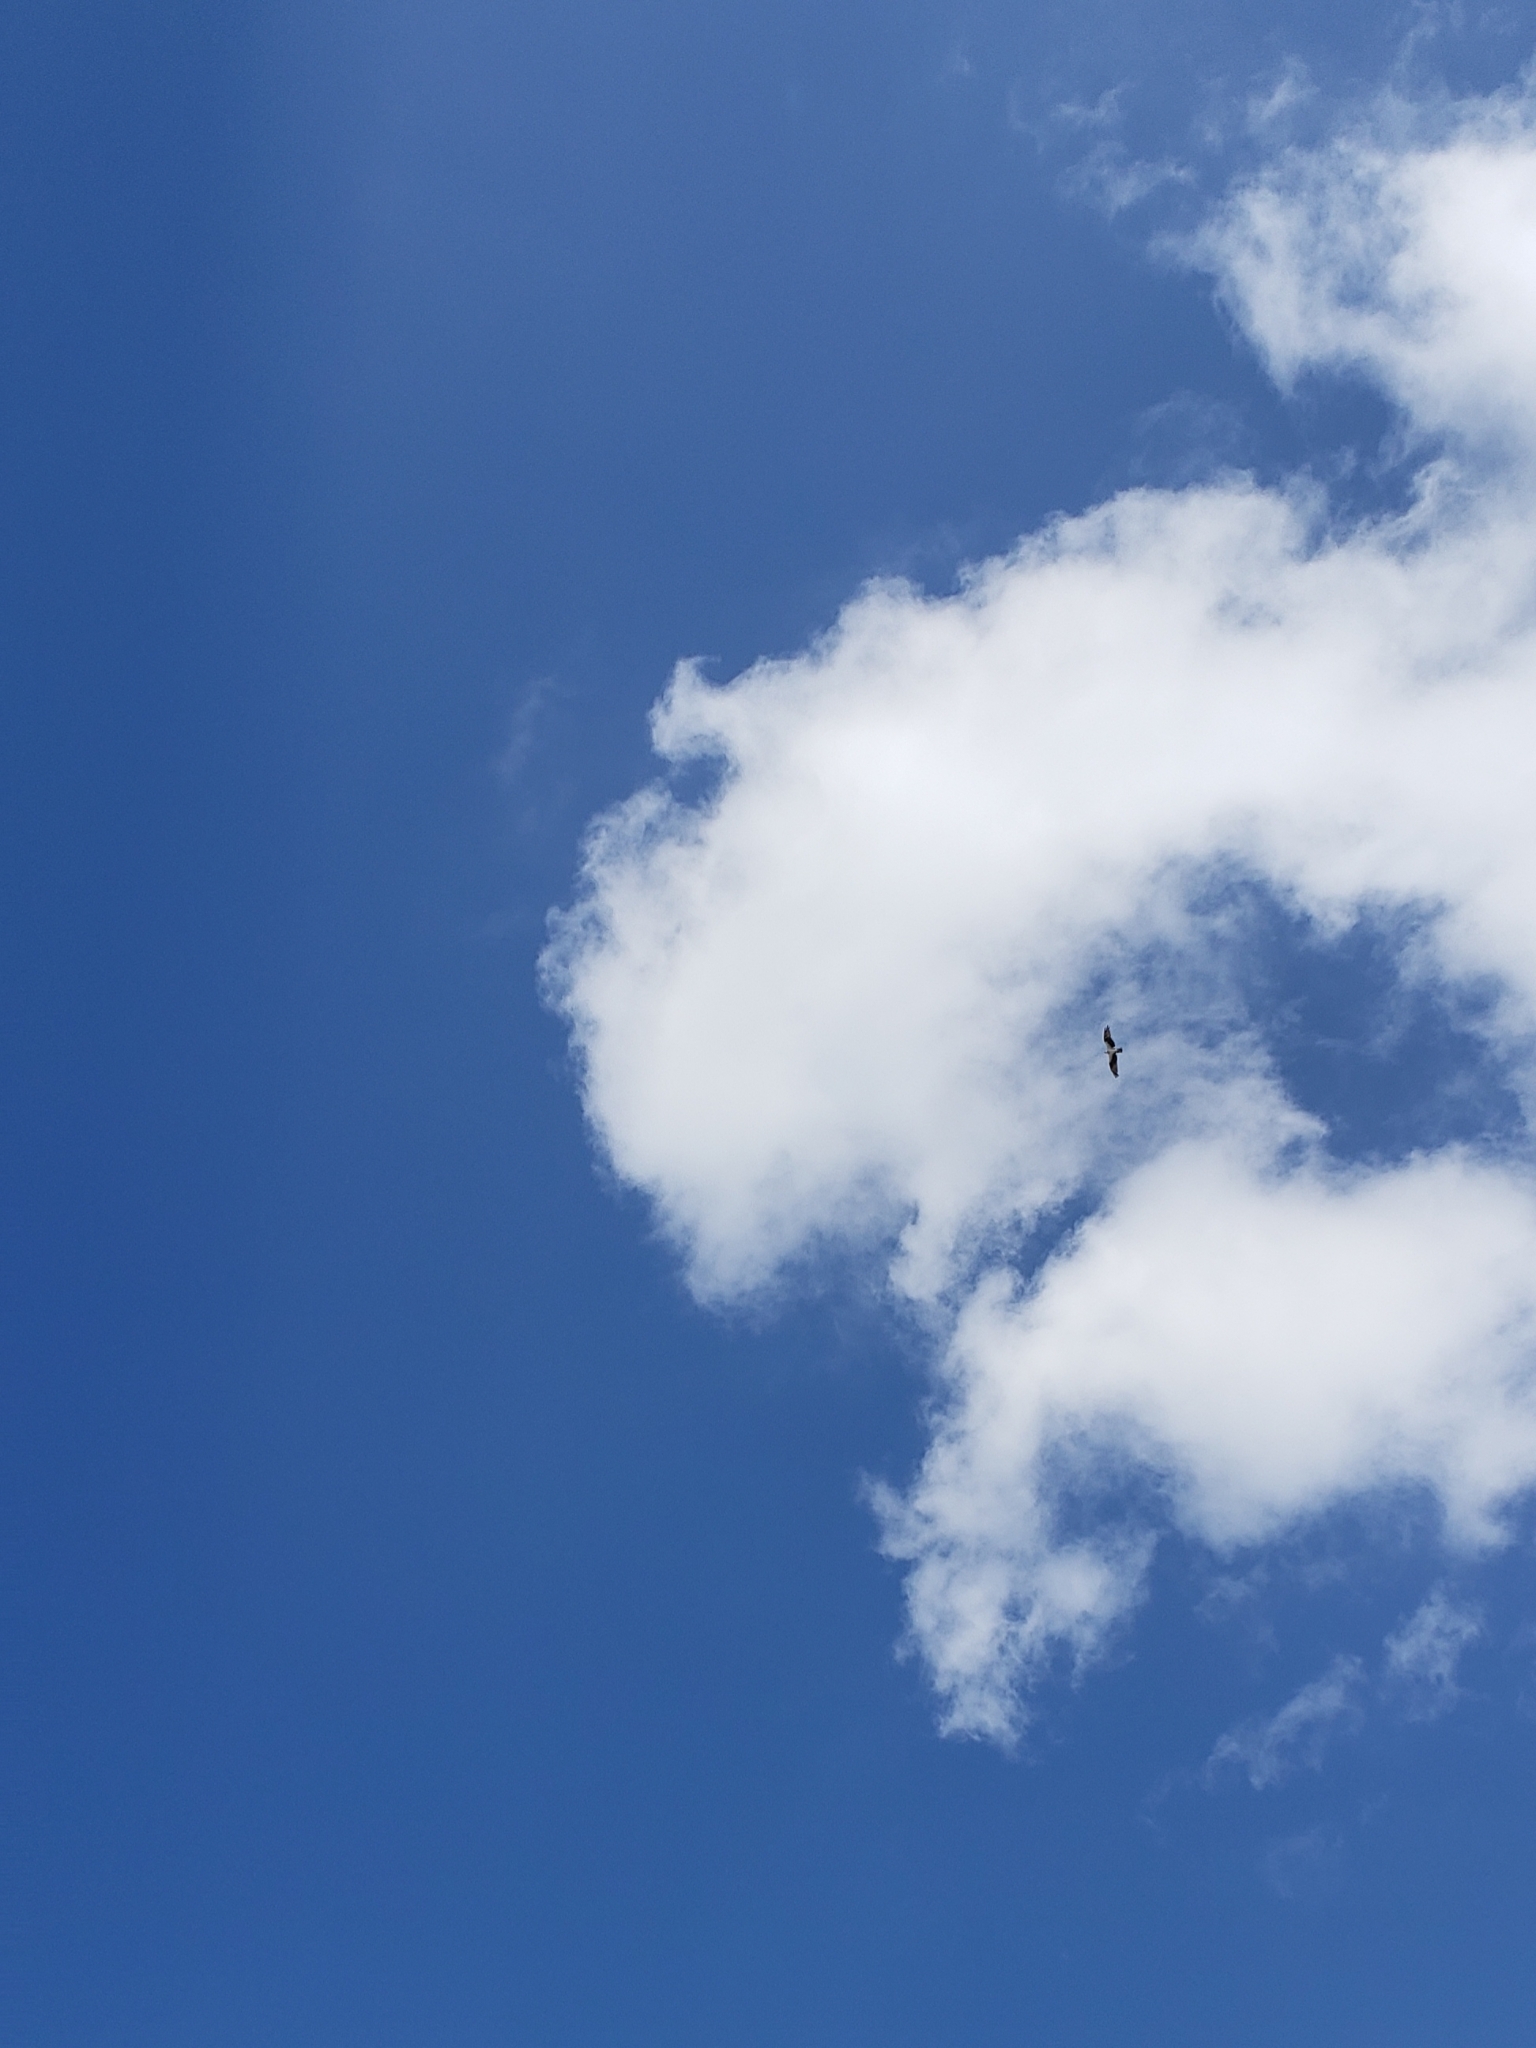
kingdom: Animalia
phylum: Chordata
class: Aves
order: Accipitriformes
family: Pandionidae
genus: Pandion
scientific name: Pandion haliaetus
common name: Osprey
